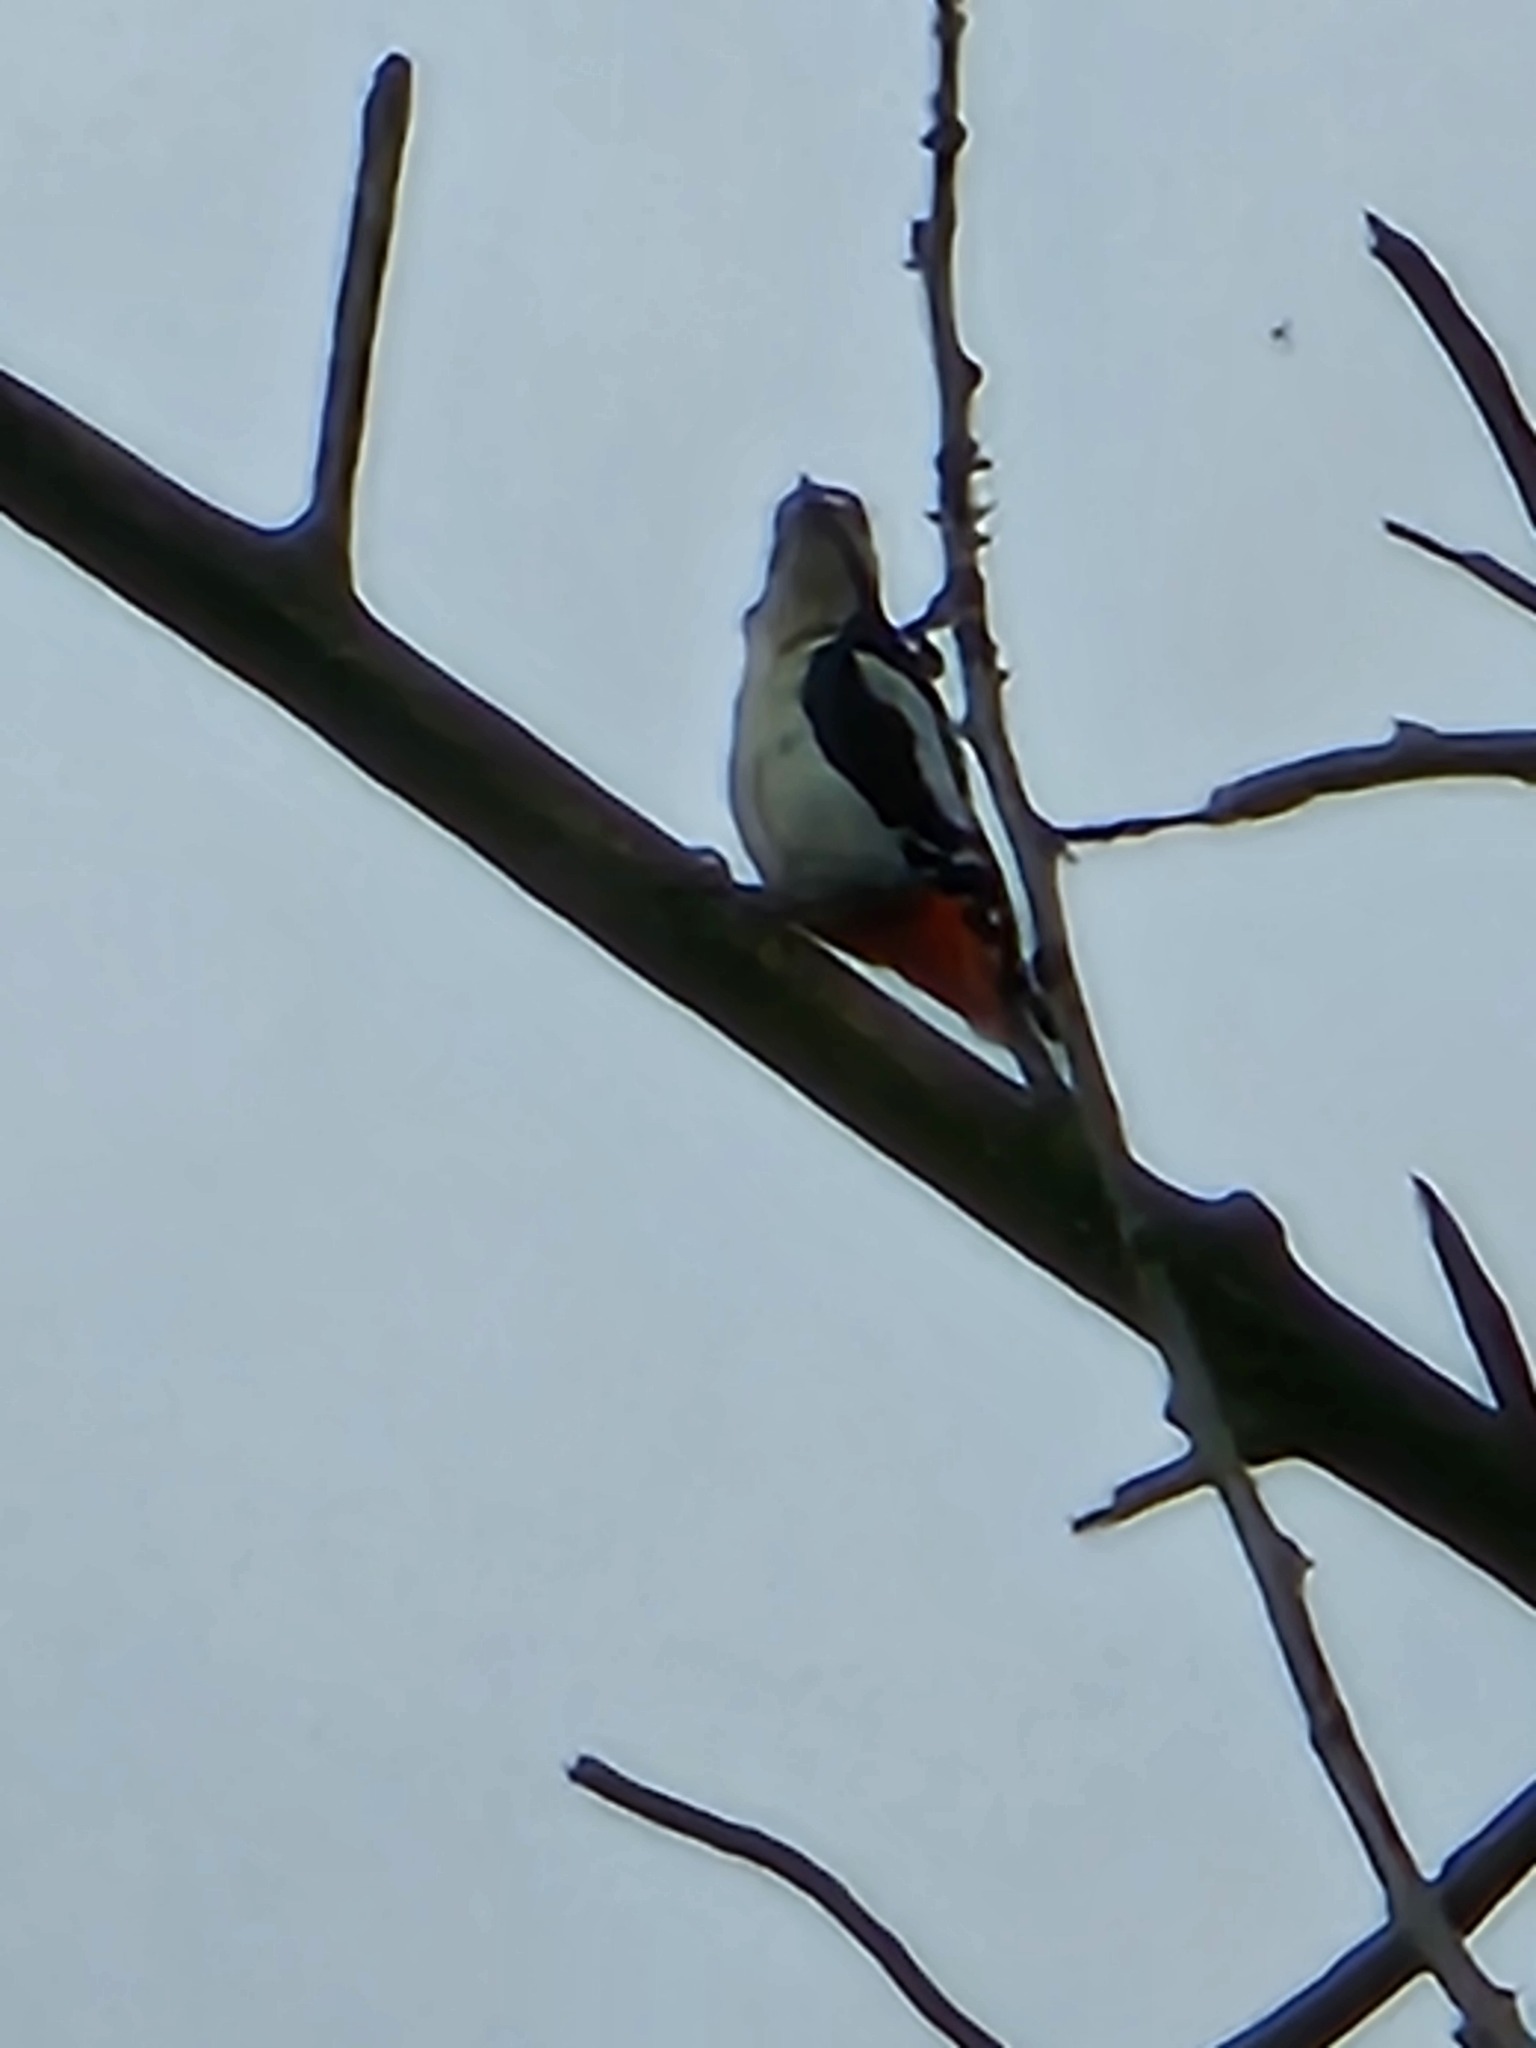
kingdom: Animalia
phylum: Chordata
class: Aves
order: Piciformes
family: Picidae
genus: Dendrocopos
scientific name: Dendrocopos major
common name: Great spotted woodpecker
